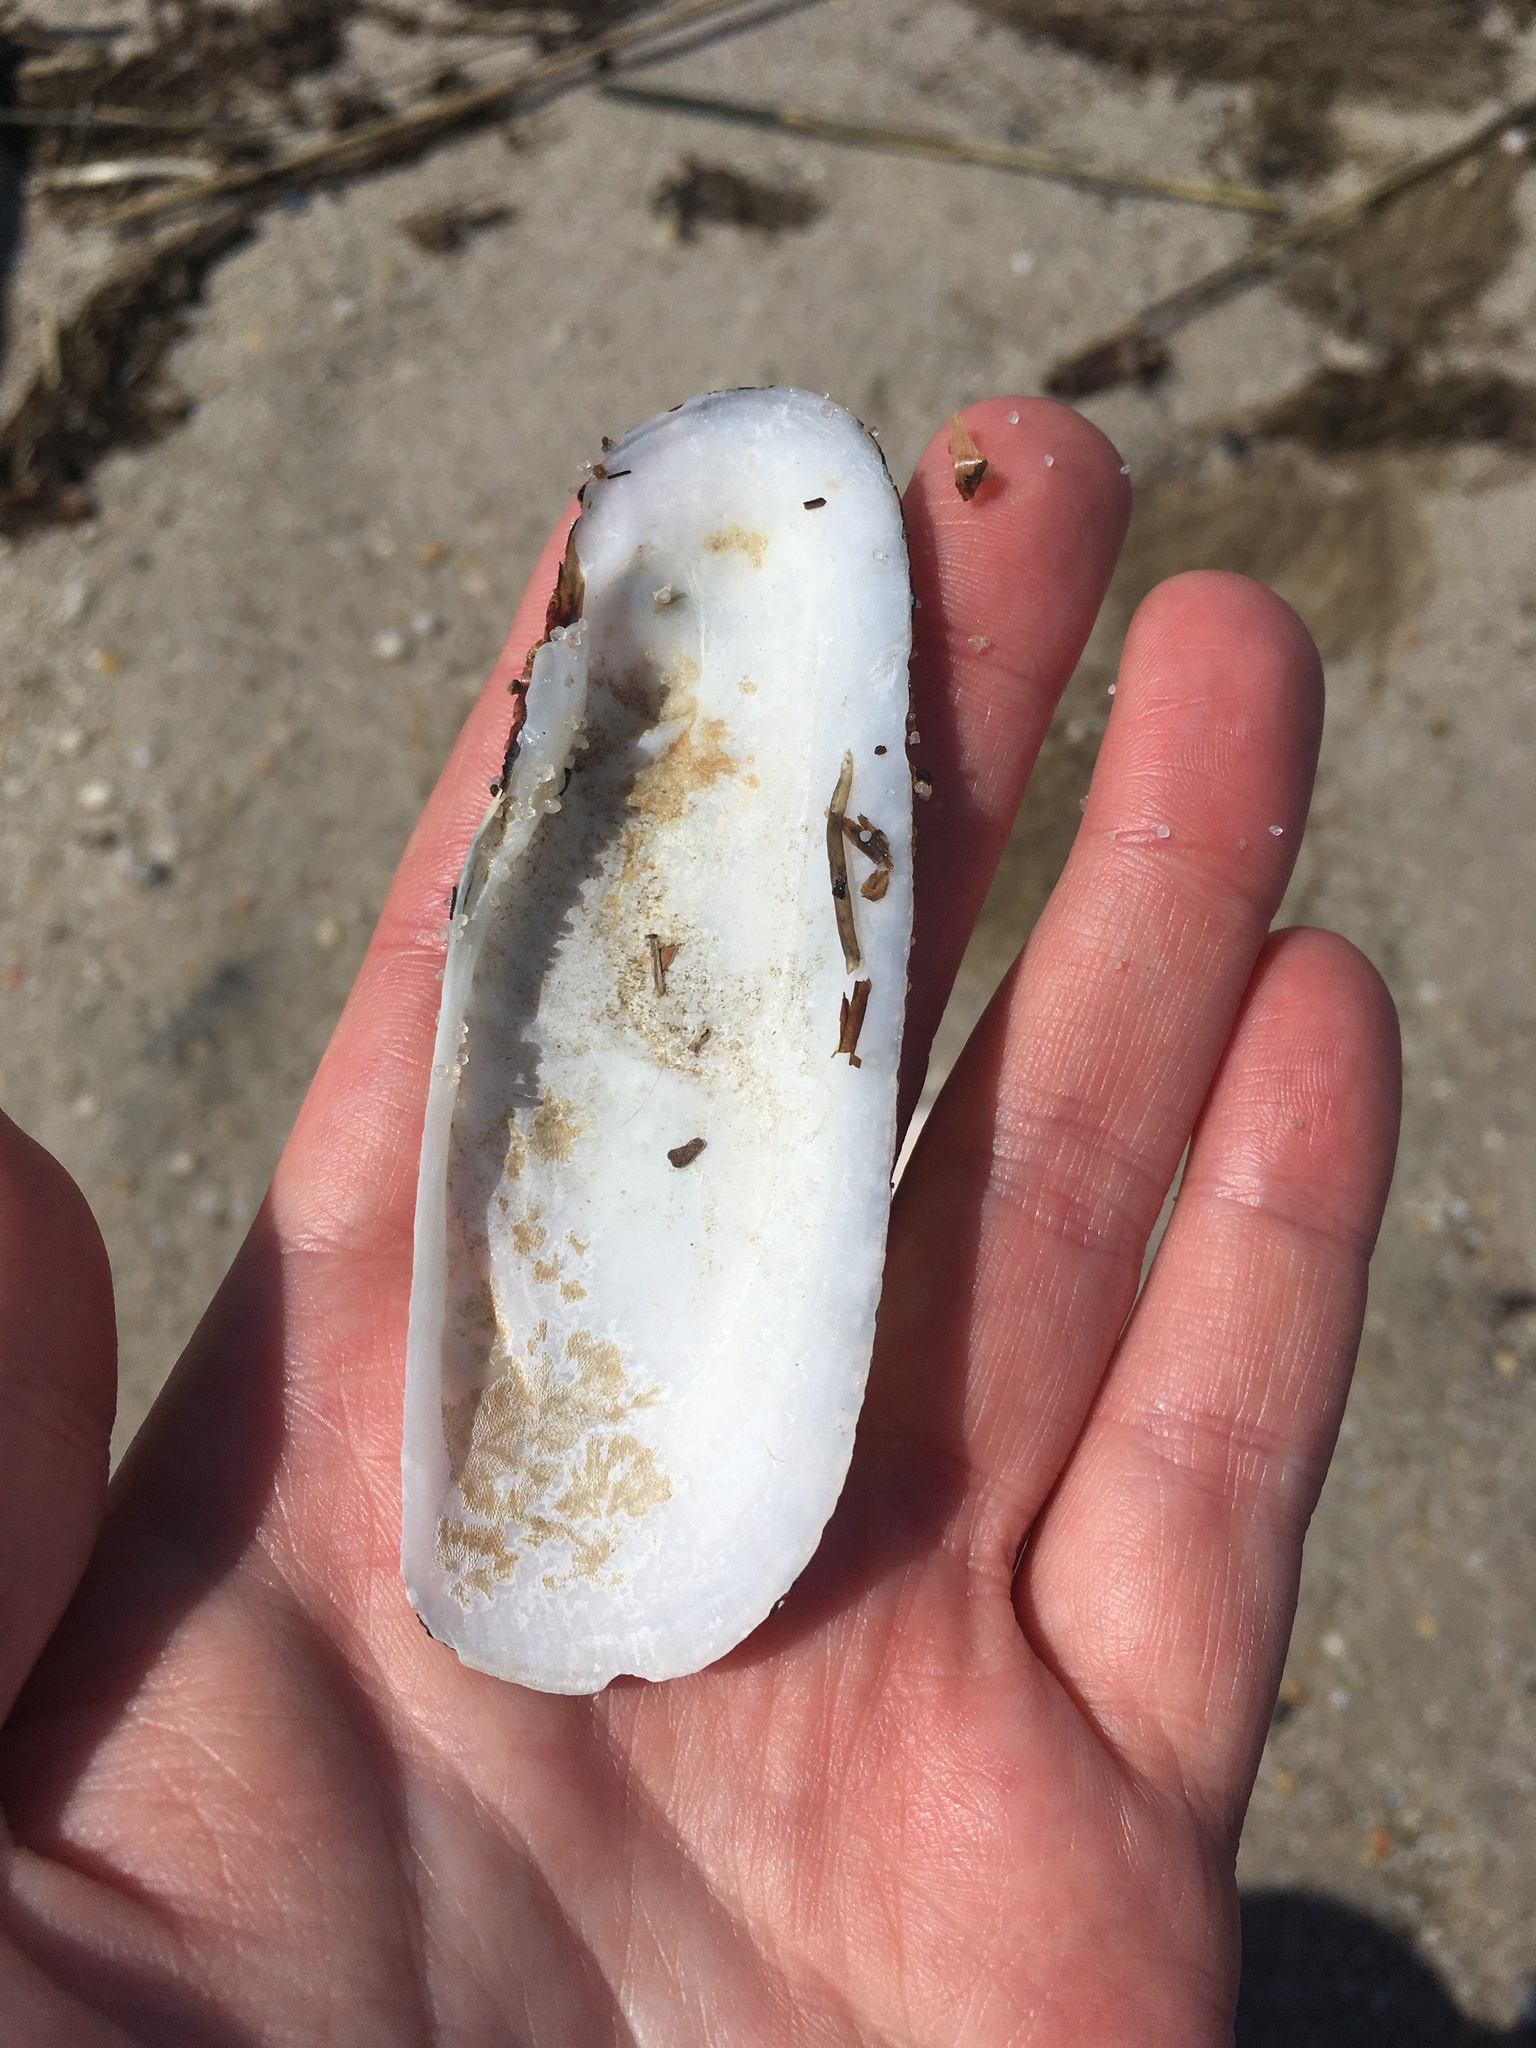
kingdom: Animalia
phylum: Mollusca
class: Bivalvia
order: Cardiida
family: Solecurtidae
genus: Tagelus
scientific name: Tagelus plebeius
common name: Stout tagelus
